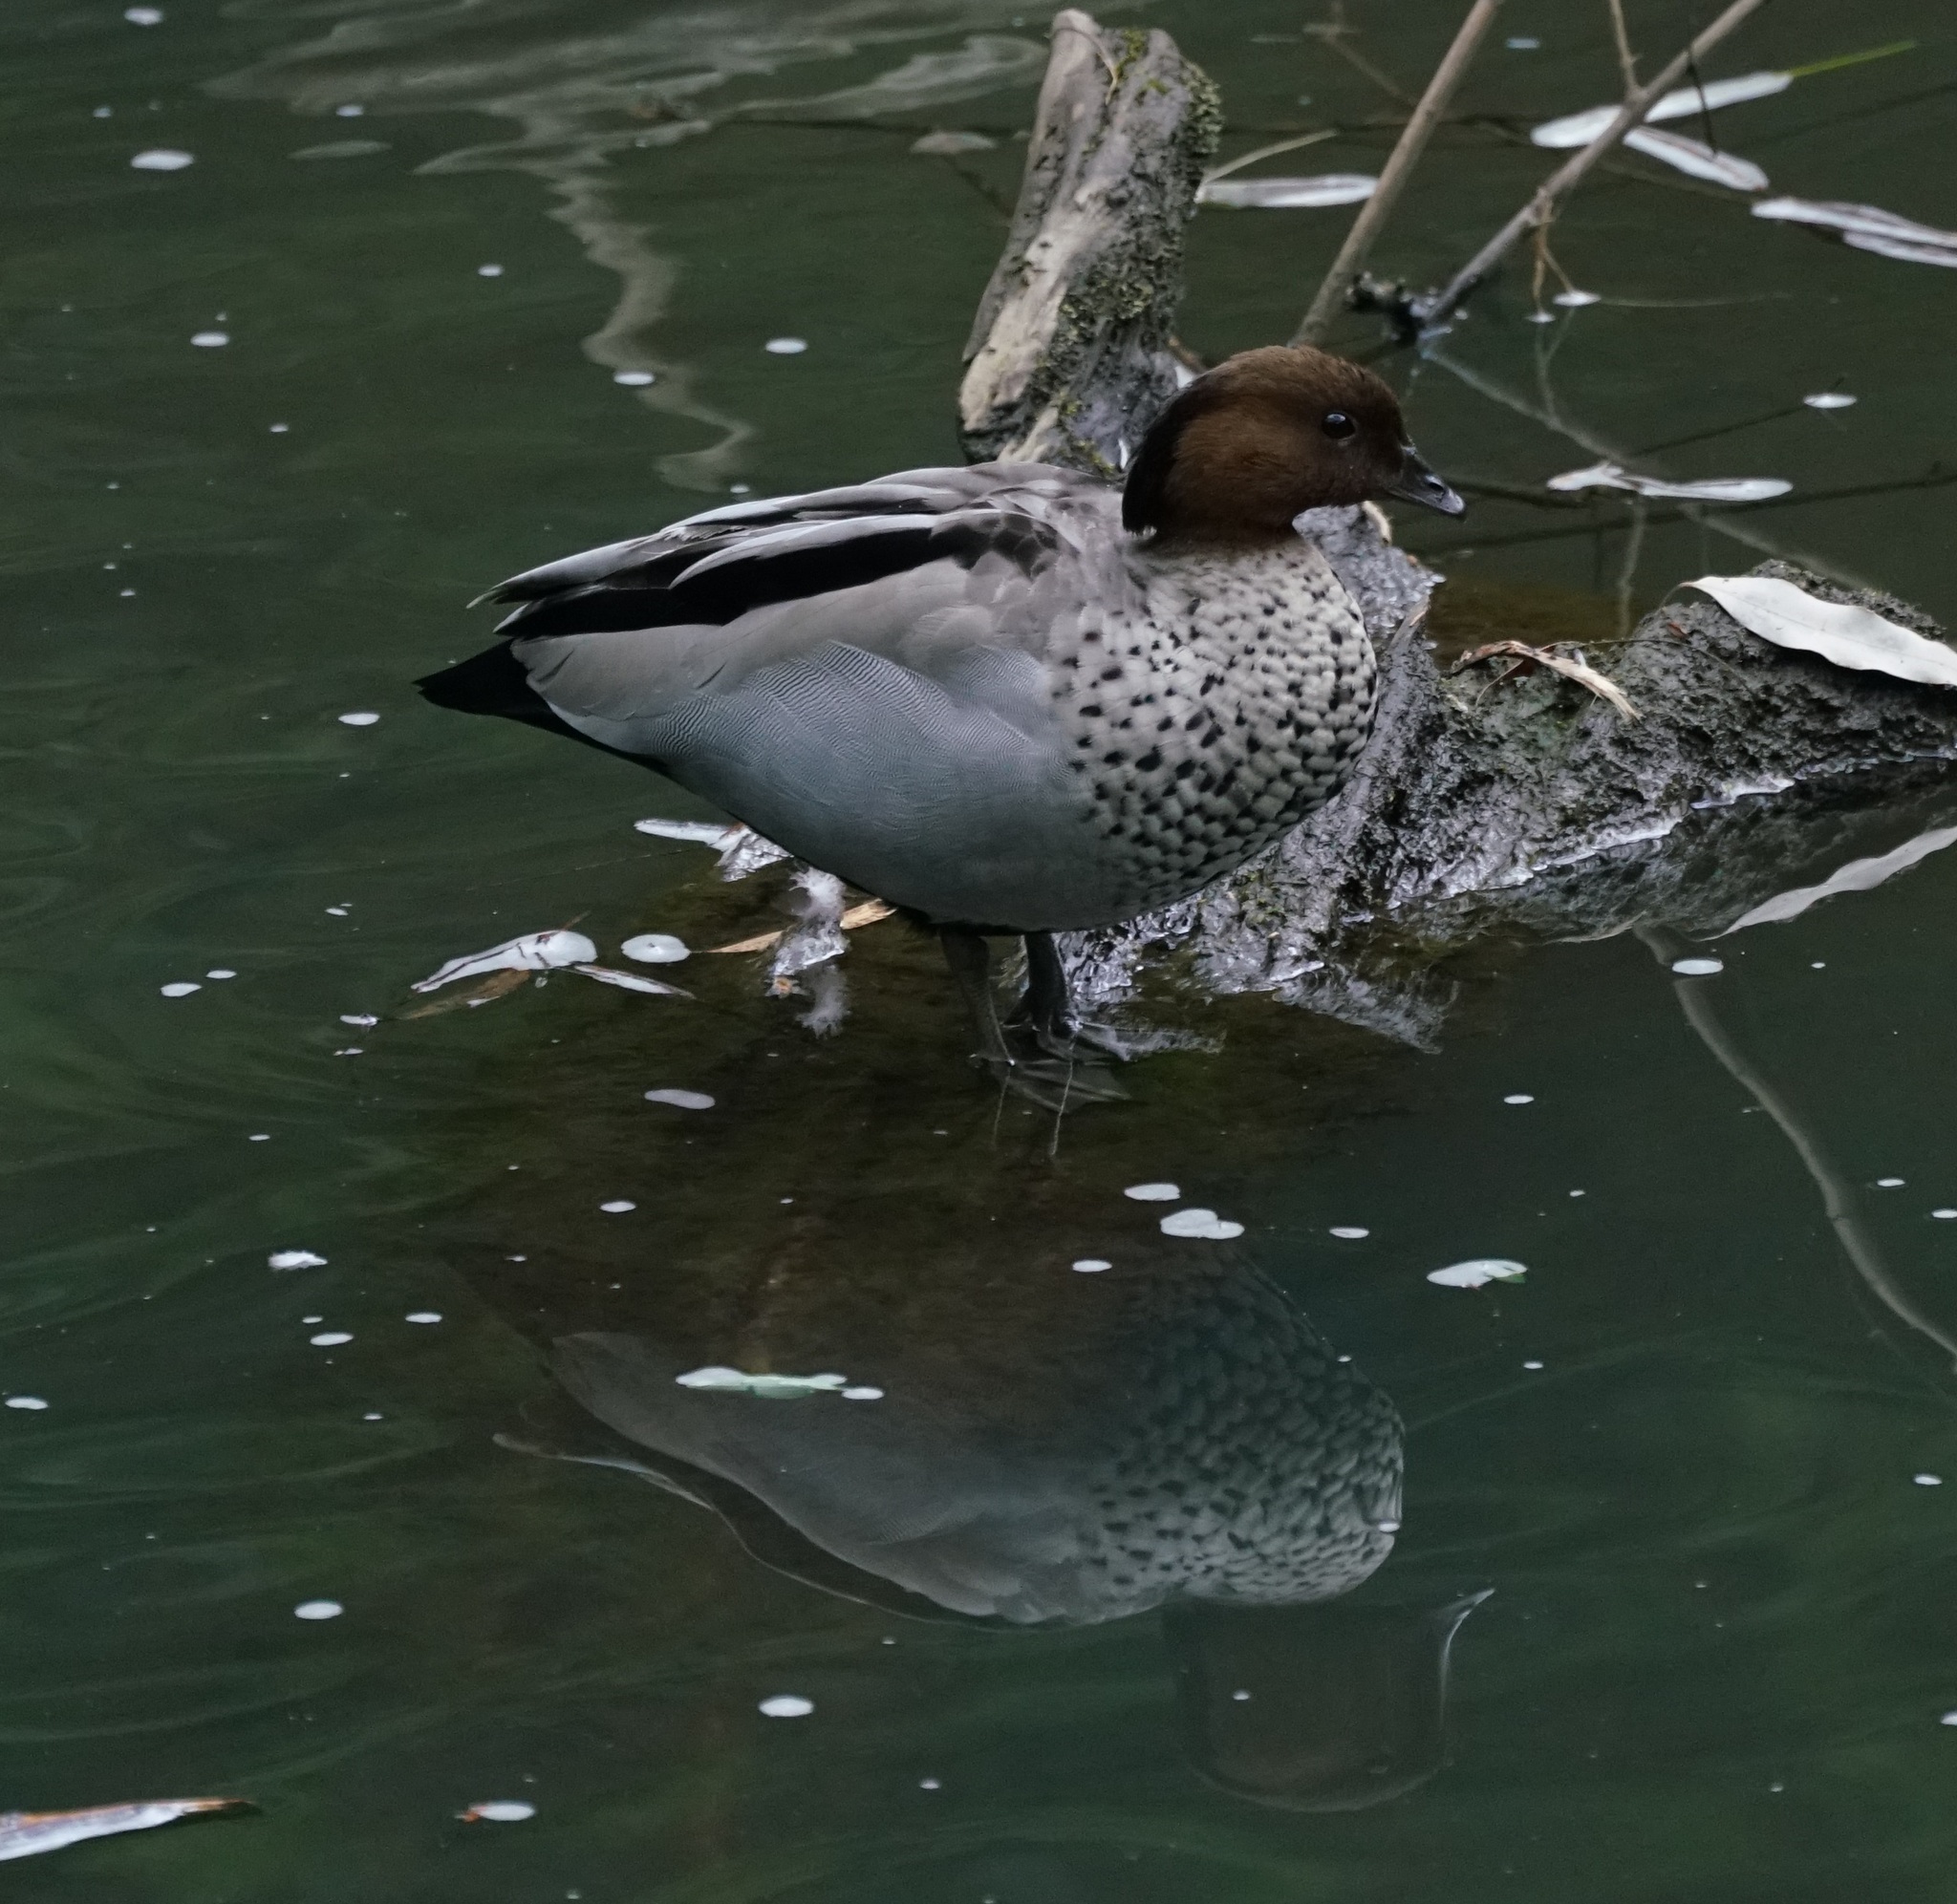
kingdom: Animalia
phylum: Chordata
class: Aves
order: Anseriformes
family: Anatidae
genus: Chenonetta
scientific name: Chenonetta jubata
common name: Maned duck
